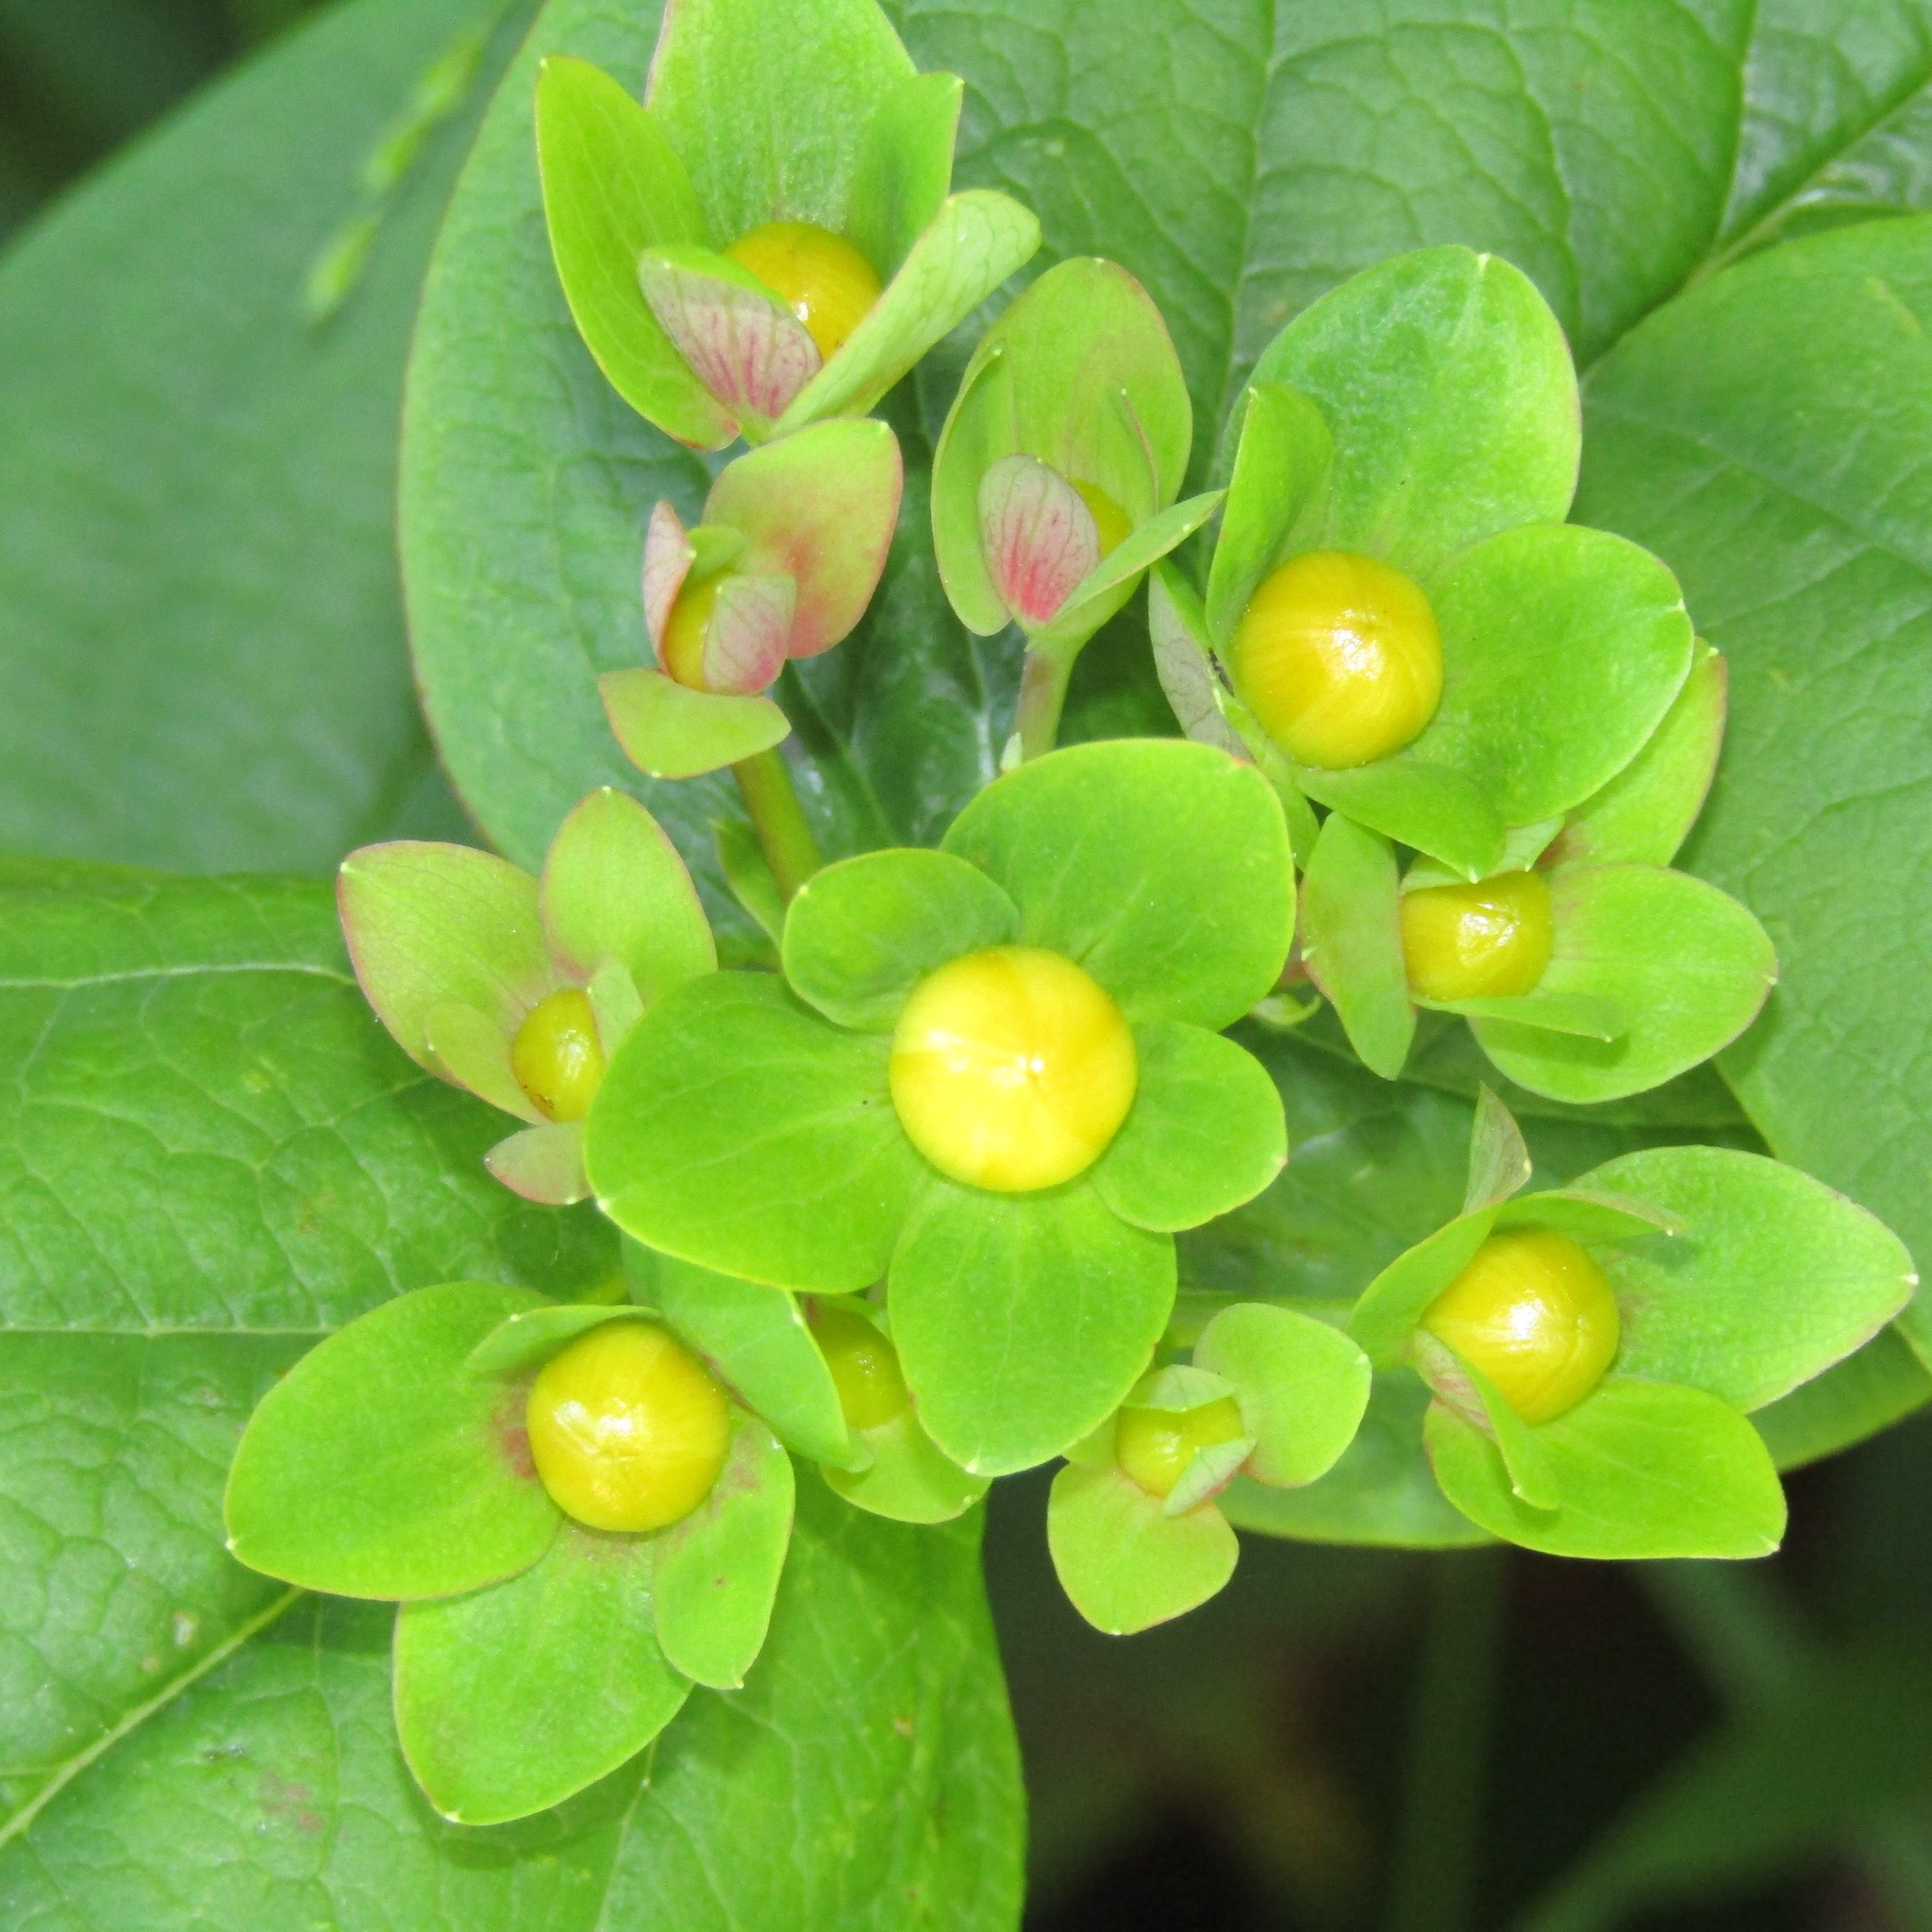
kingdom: Plantae
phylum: Tracheophyta
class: Magnoliopsida
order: Malpighiales
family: Hypericaceae
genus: Hypericum
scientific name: Hypericum androsaemum
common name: Sweet-amber
